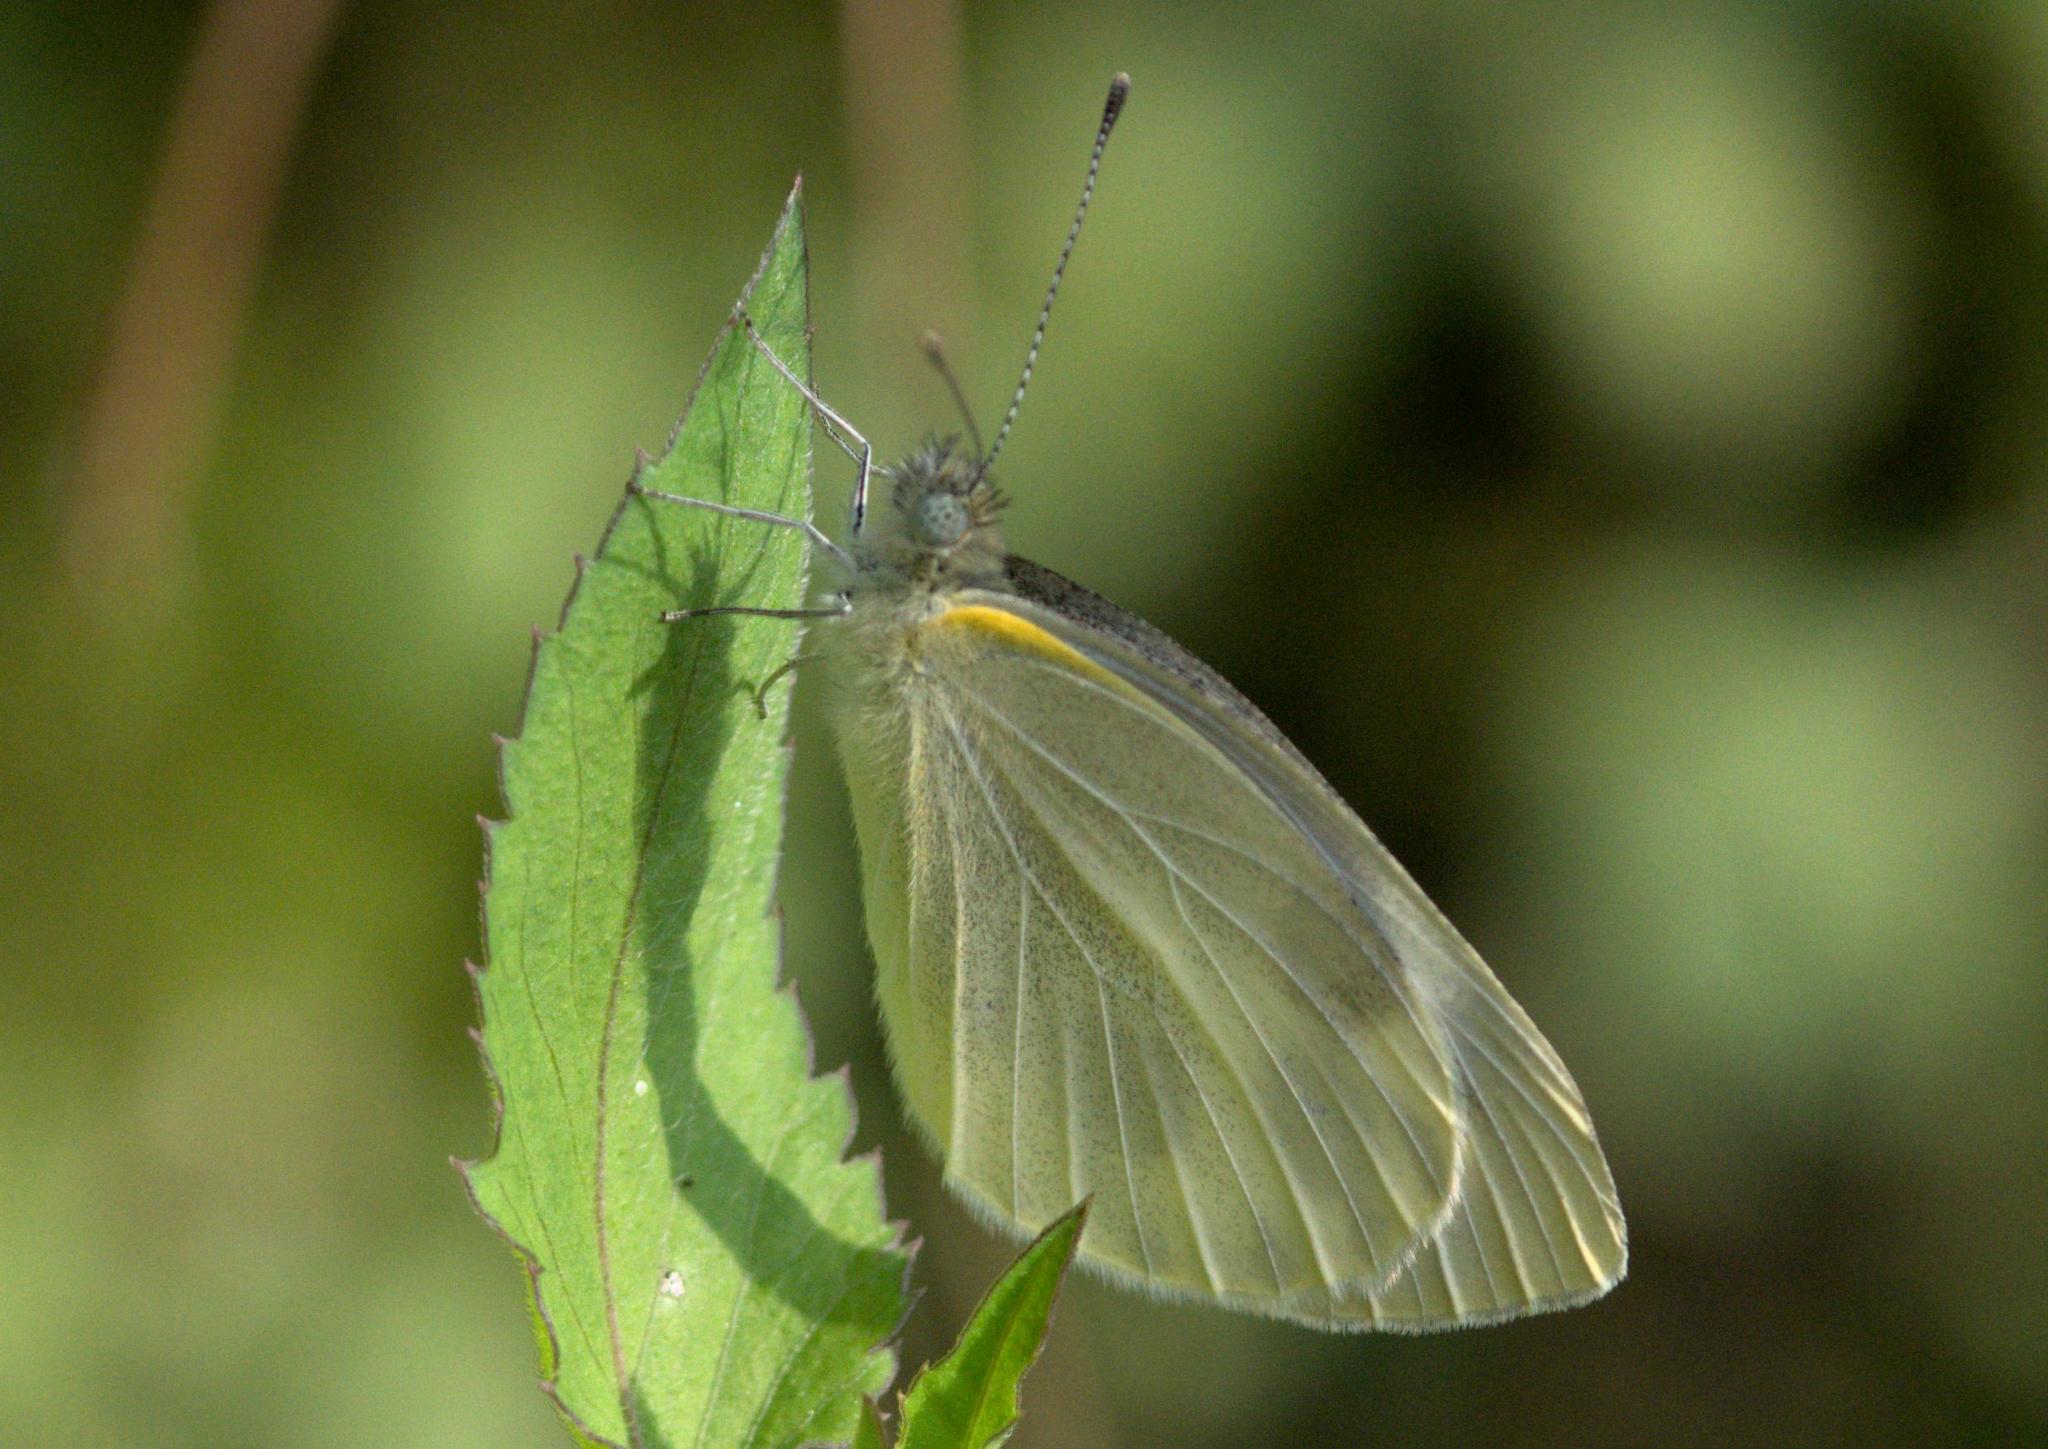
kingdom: Animalia
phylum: Arthropoda
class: Insecta
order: Lepidoptera
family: Pieridae
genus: Pieris
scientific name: Pieris canidia
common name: Indian cabbage white
